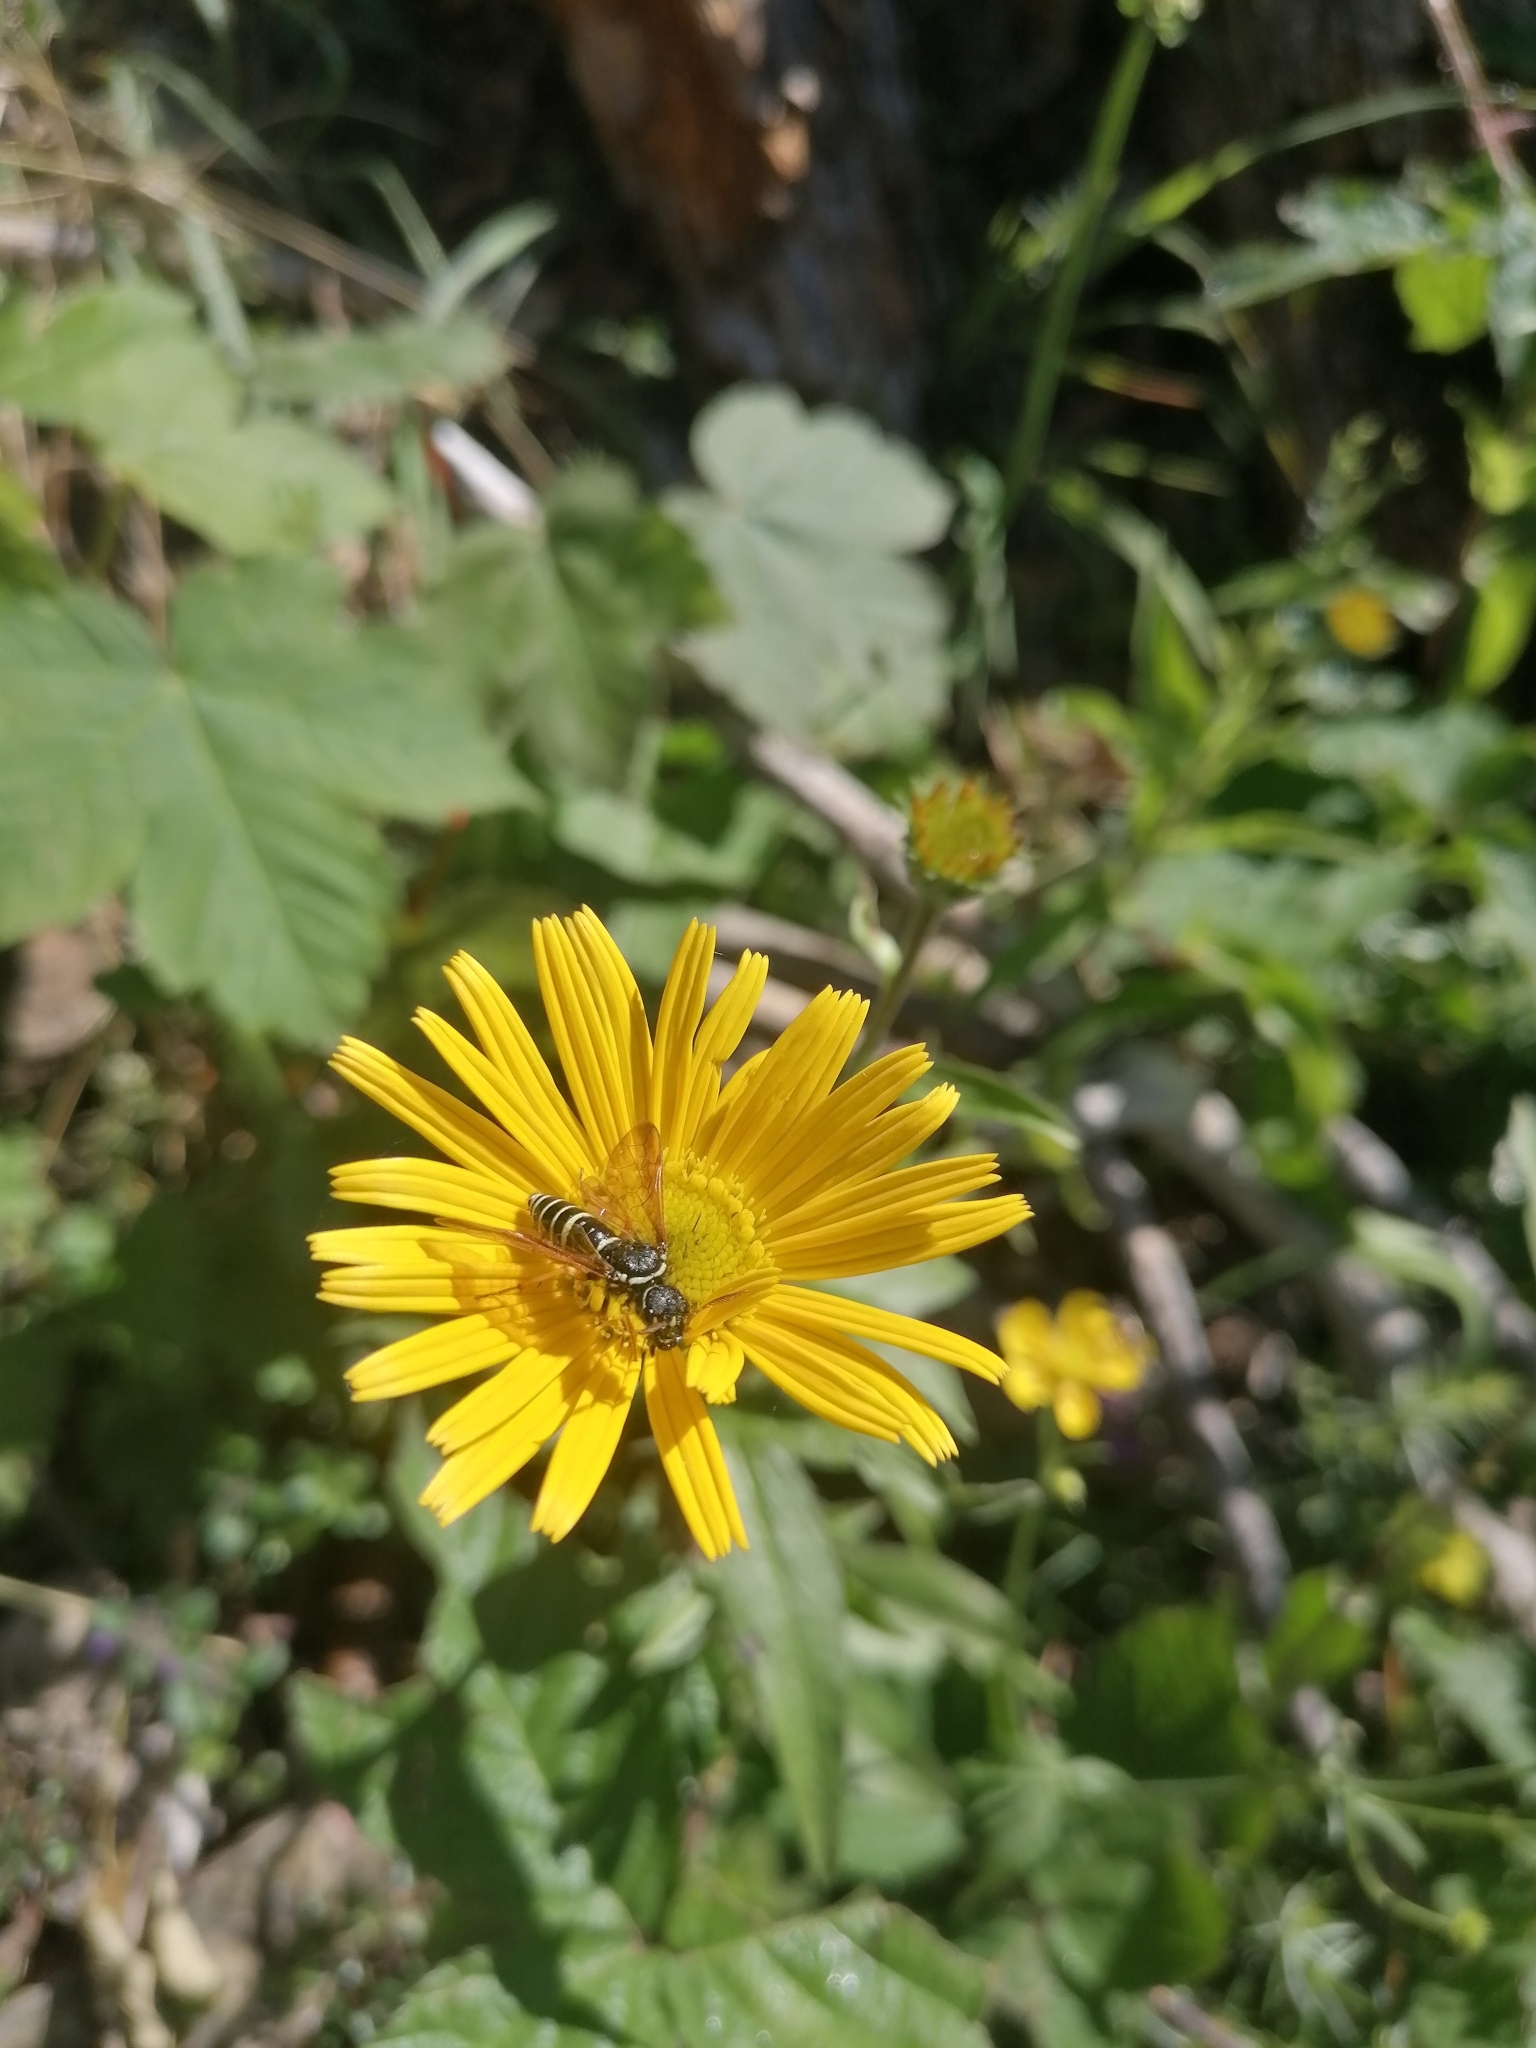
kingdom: Animalia
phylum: Arthropoda
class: Insecta
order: Hymenoptera
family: Megalodontesidae
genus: Megalodontes
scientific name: Megalodontes cephalotes
